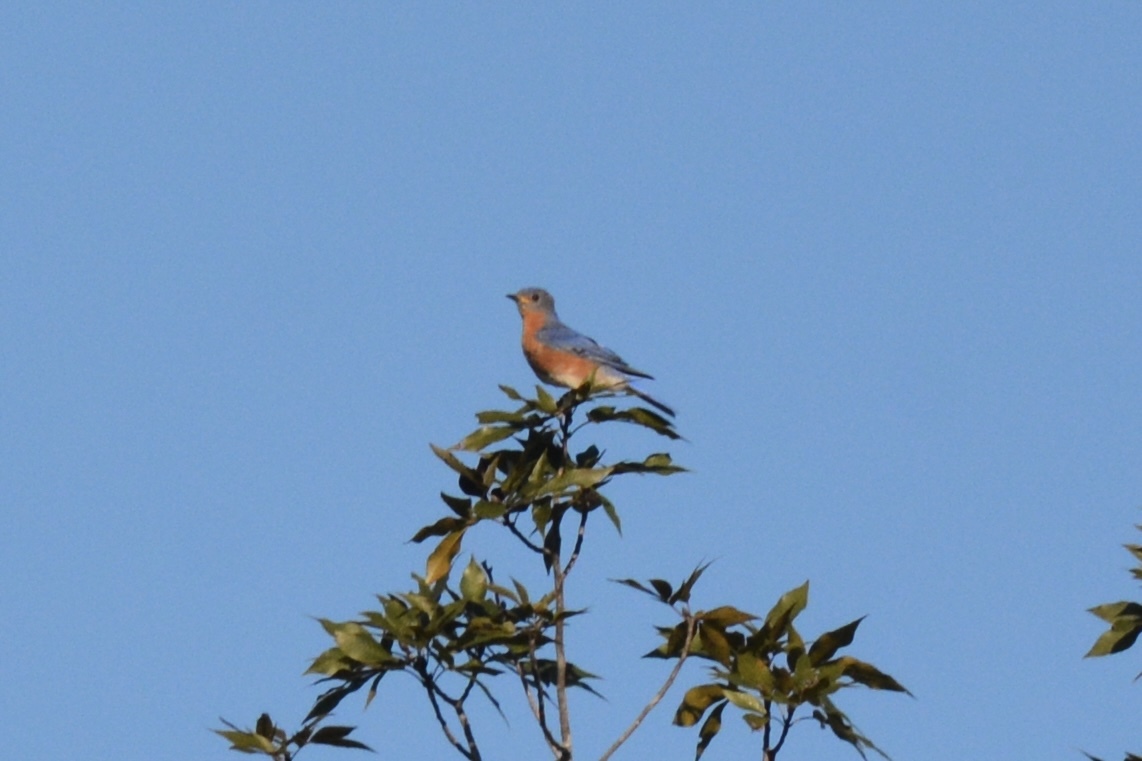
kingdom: Animalia
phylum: Chordata
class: Aves
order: Passeriformes
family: Turdidae
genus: Sialia
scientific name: Sialia sialis
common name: Eastern bluebird
